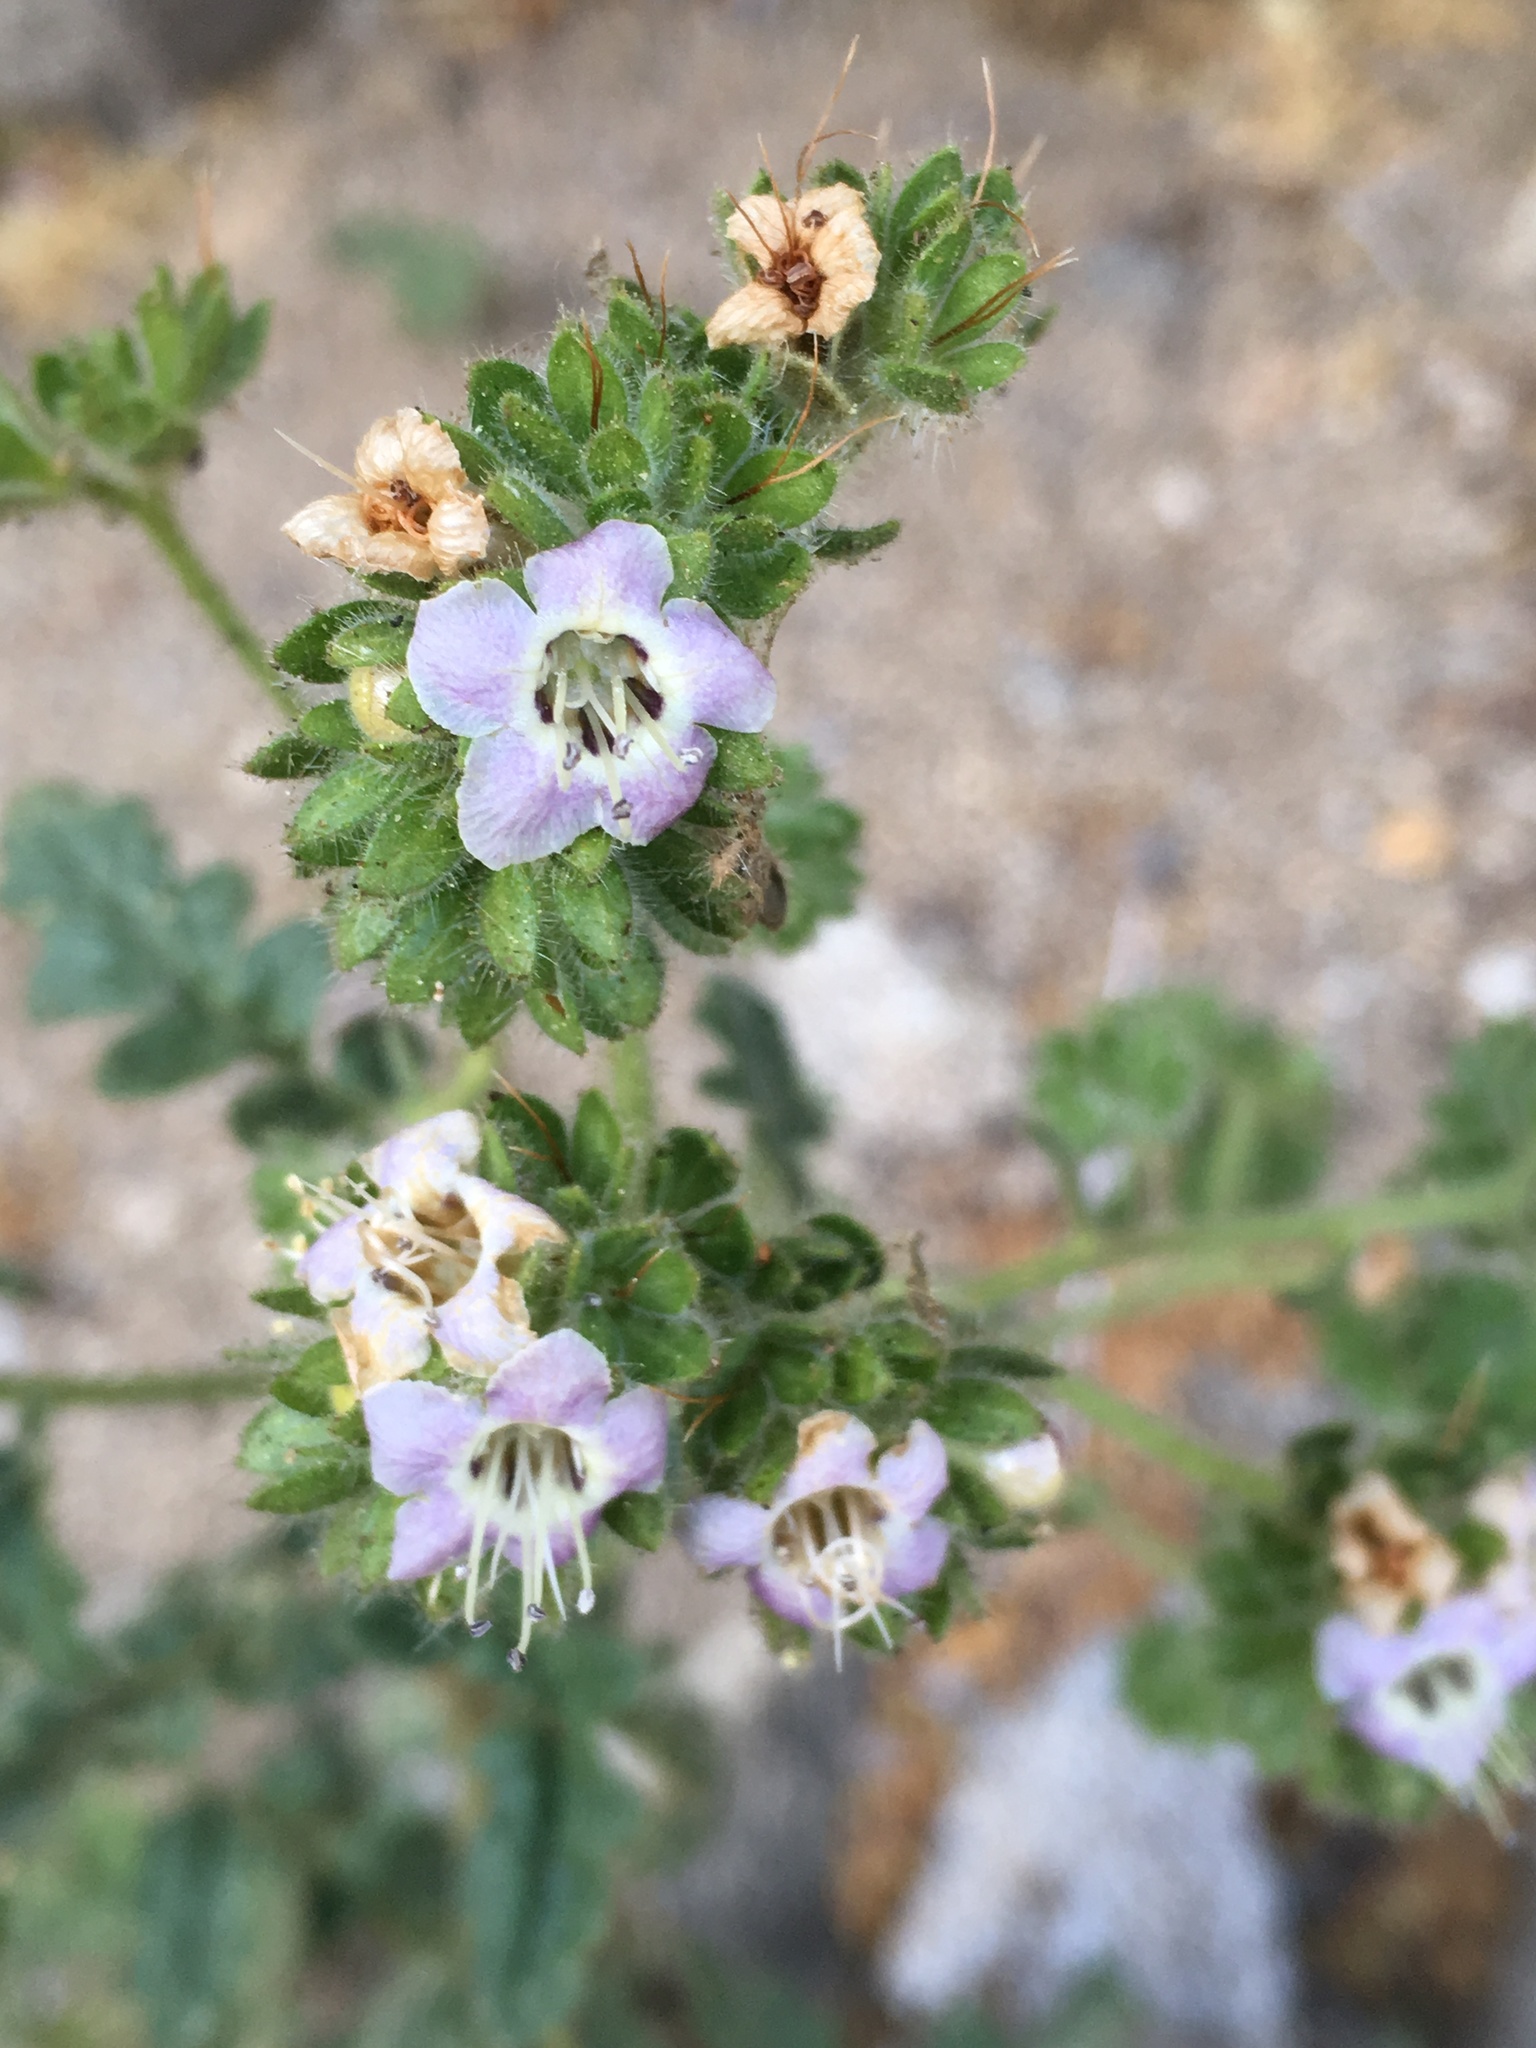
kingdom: Plantae
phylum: Tracheophyta
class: Magnoliopsida
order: Boraginales
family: Hydrophyllaceae
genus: Phacelia
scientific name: Phacelia ramosissima
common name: Branching phacelia
